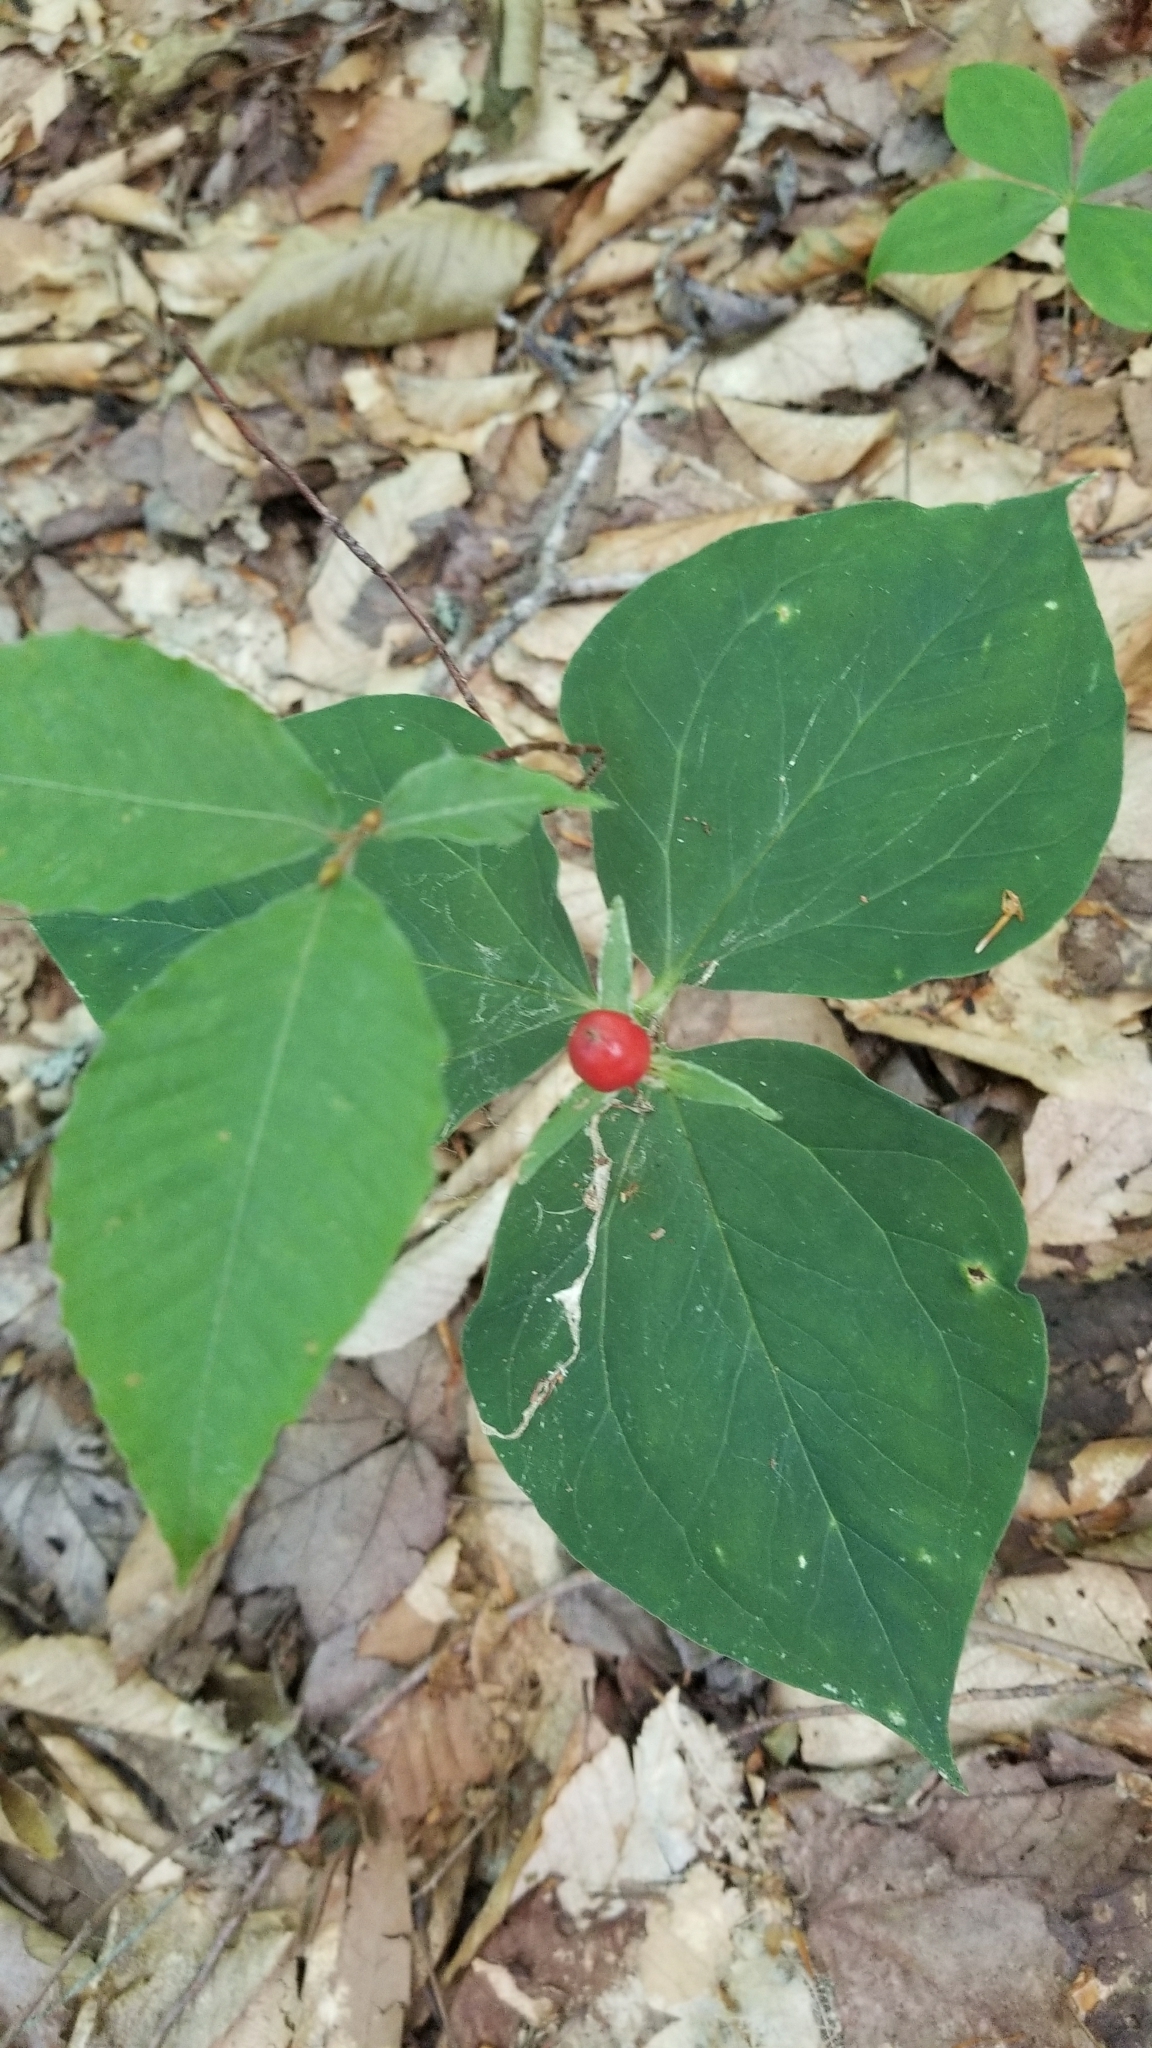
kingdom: Plantae
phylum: Tracheophyta
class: Liliopsida
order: Liliales
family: Melanthiaceae
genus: Trillium
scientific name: Trillium undulatum
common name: Paint trillium
